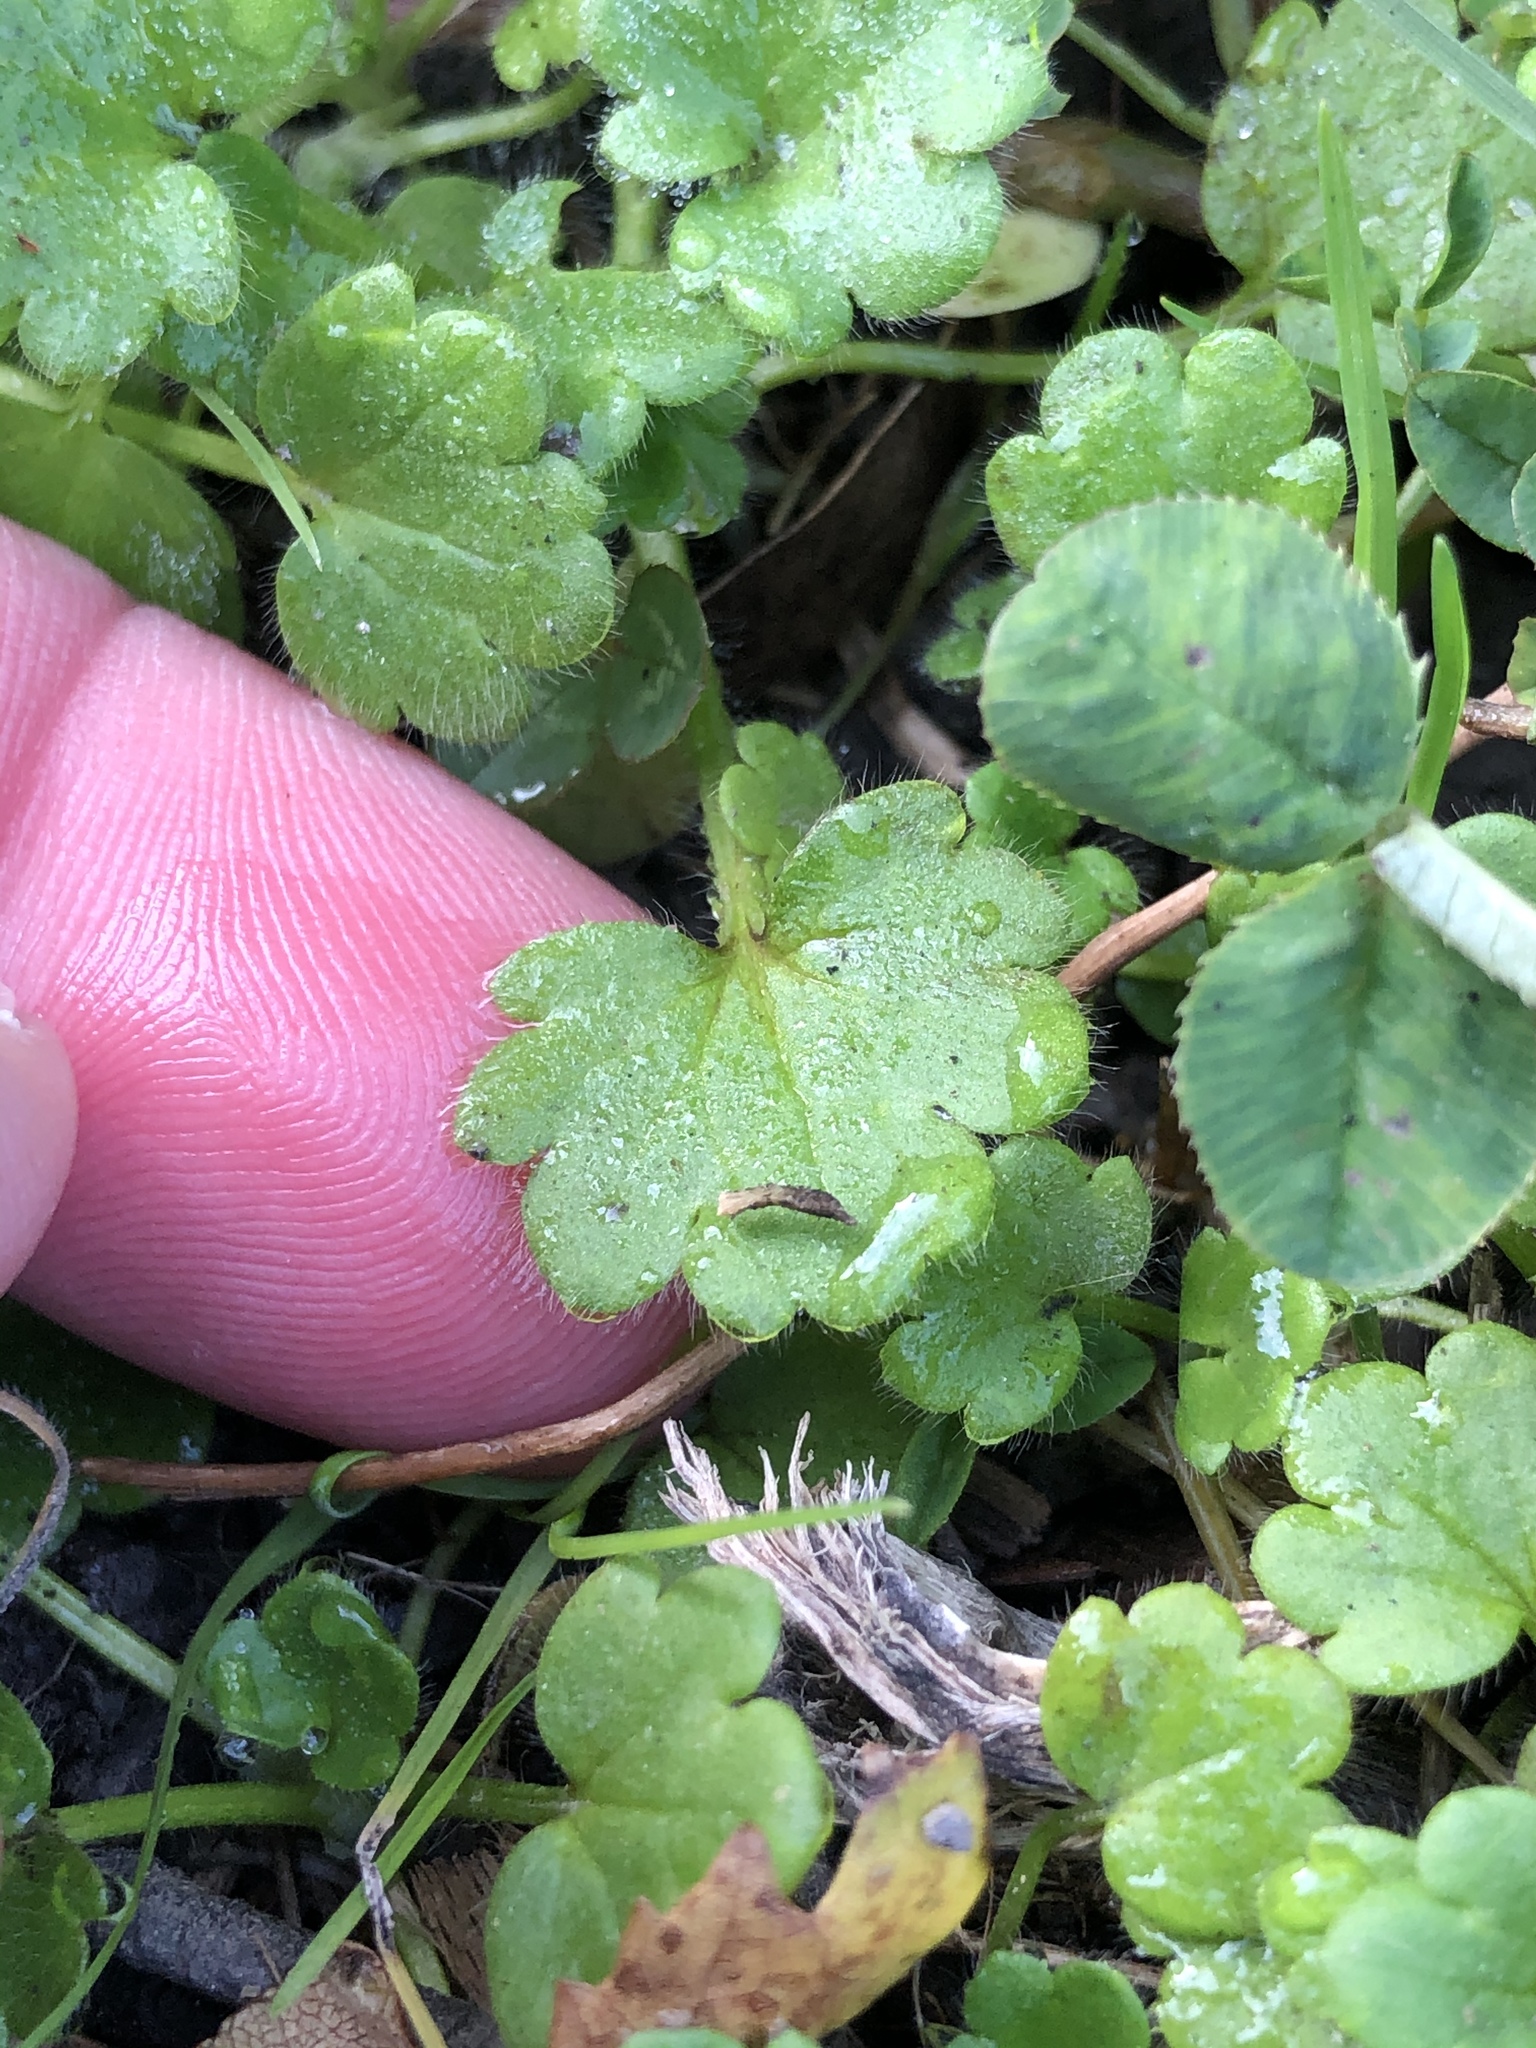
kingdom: Plantae
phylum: Tracheophyta
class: Magnoliopsida
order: Ranunculales
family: Ranunculaceae
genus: Ranunculus
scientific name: Ranunculus parviflorus
